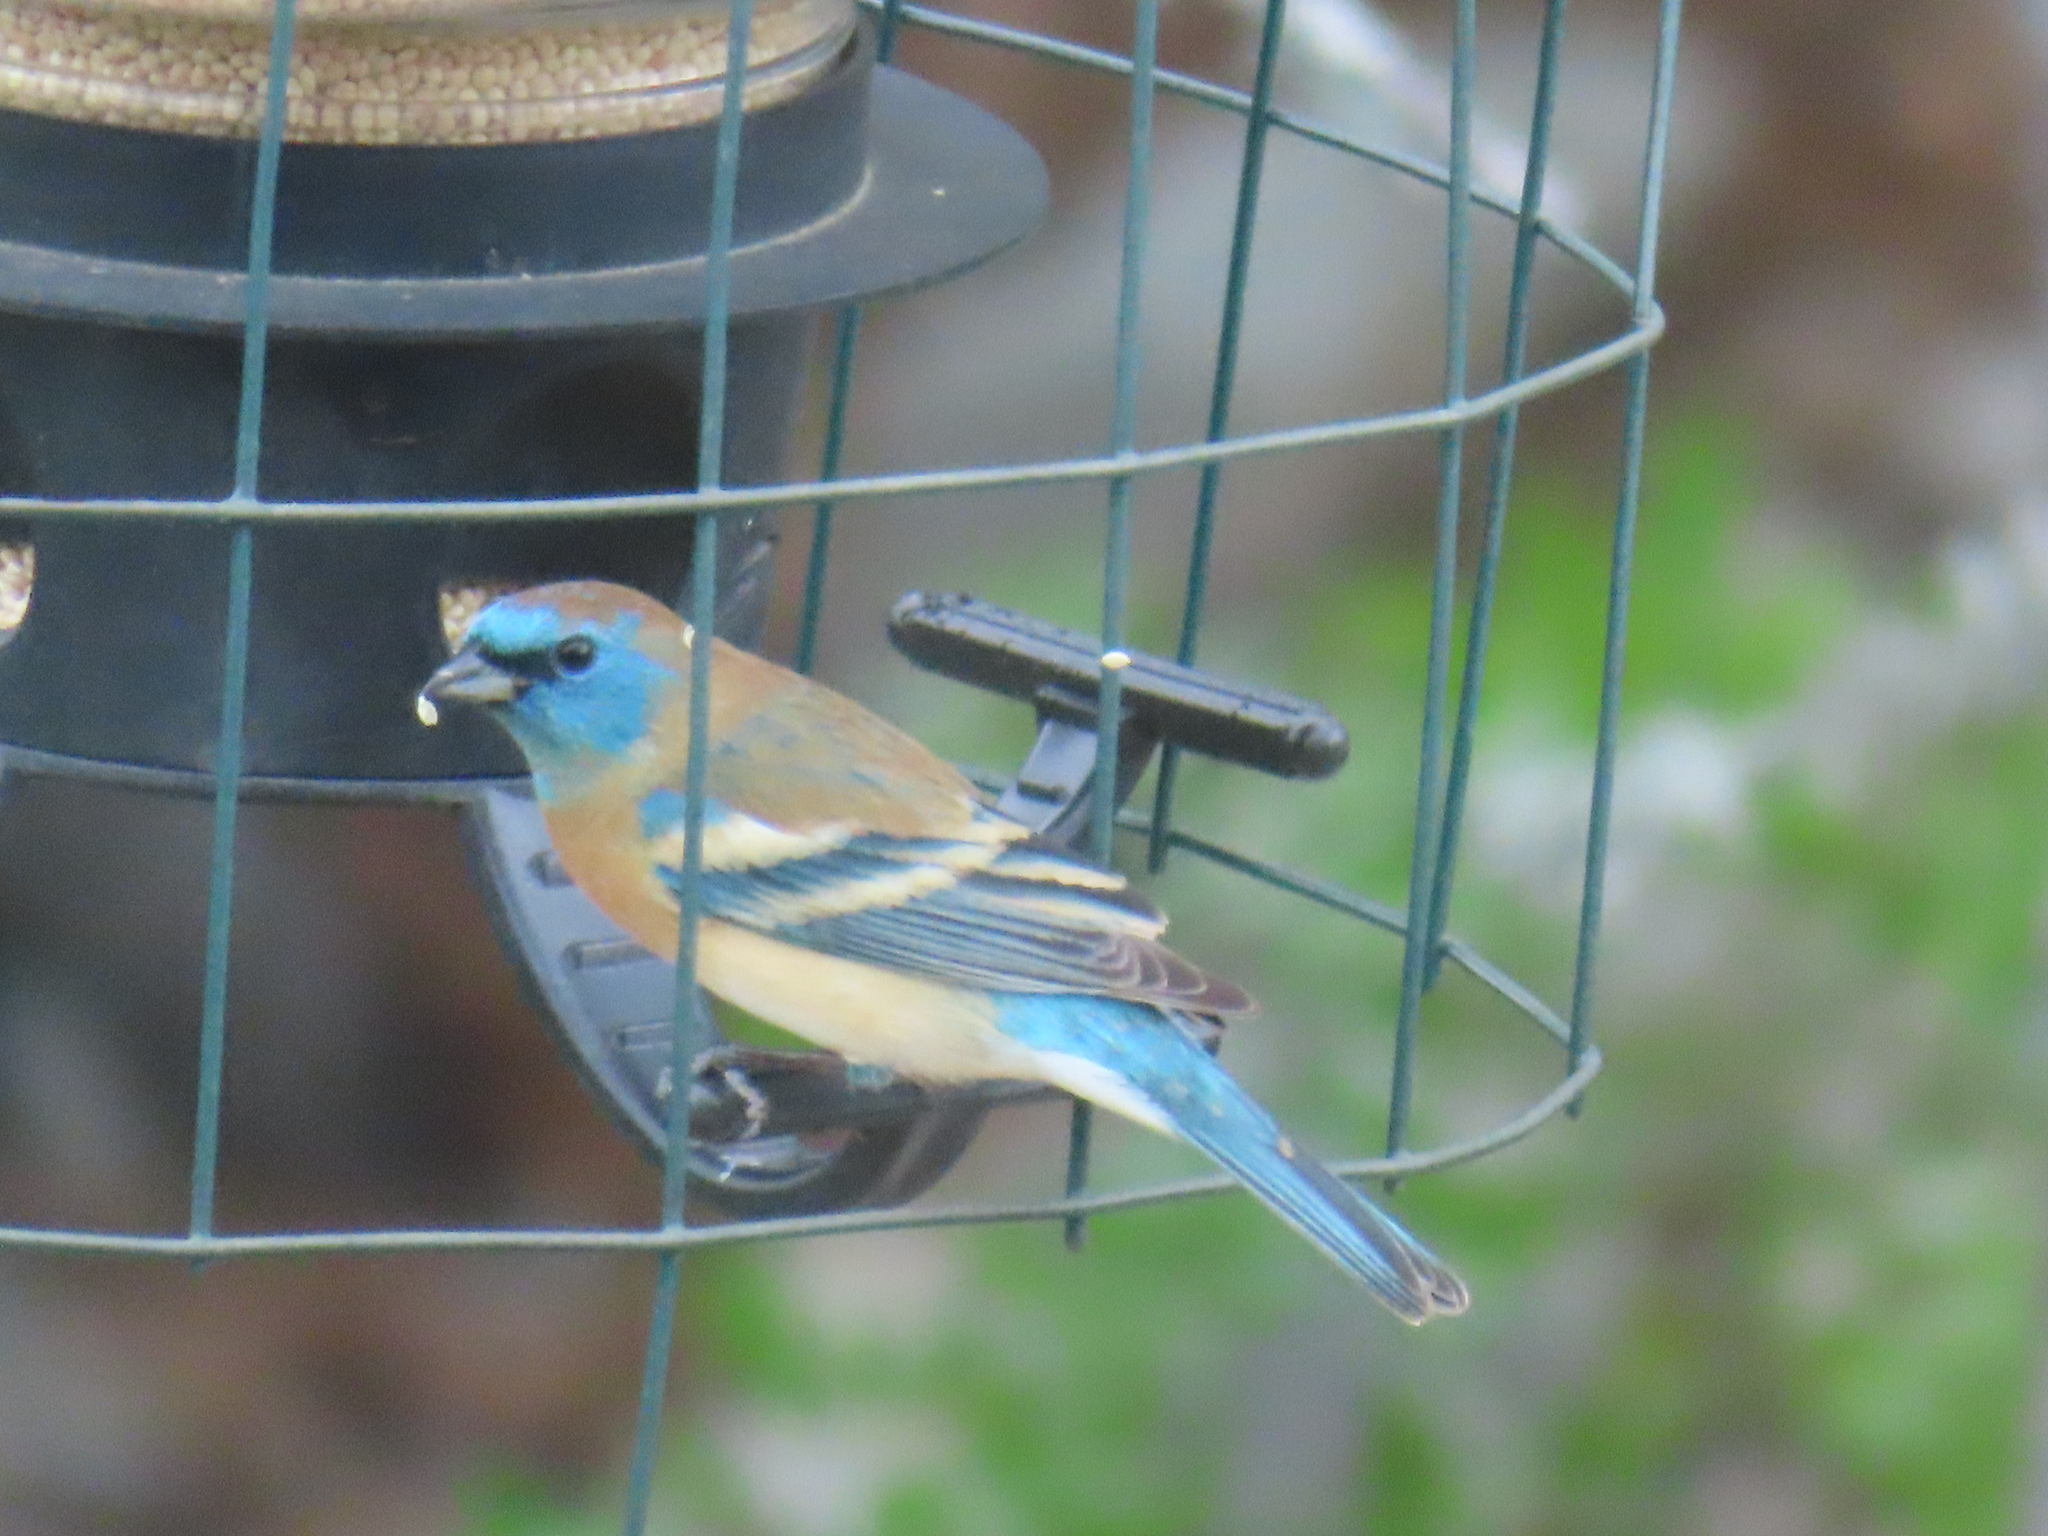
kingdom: Animalia
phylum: Chordata
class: Aves
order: Passeriformes
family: Cardinalidae
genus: Passerina
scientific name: Passerina amoena
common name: Lazuli bunting
